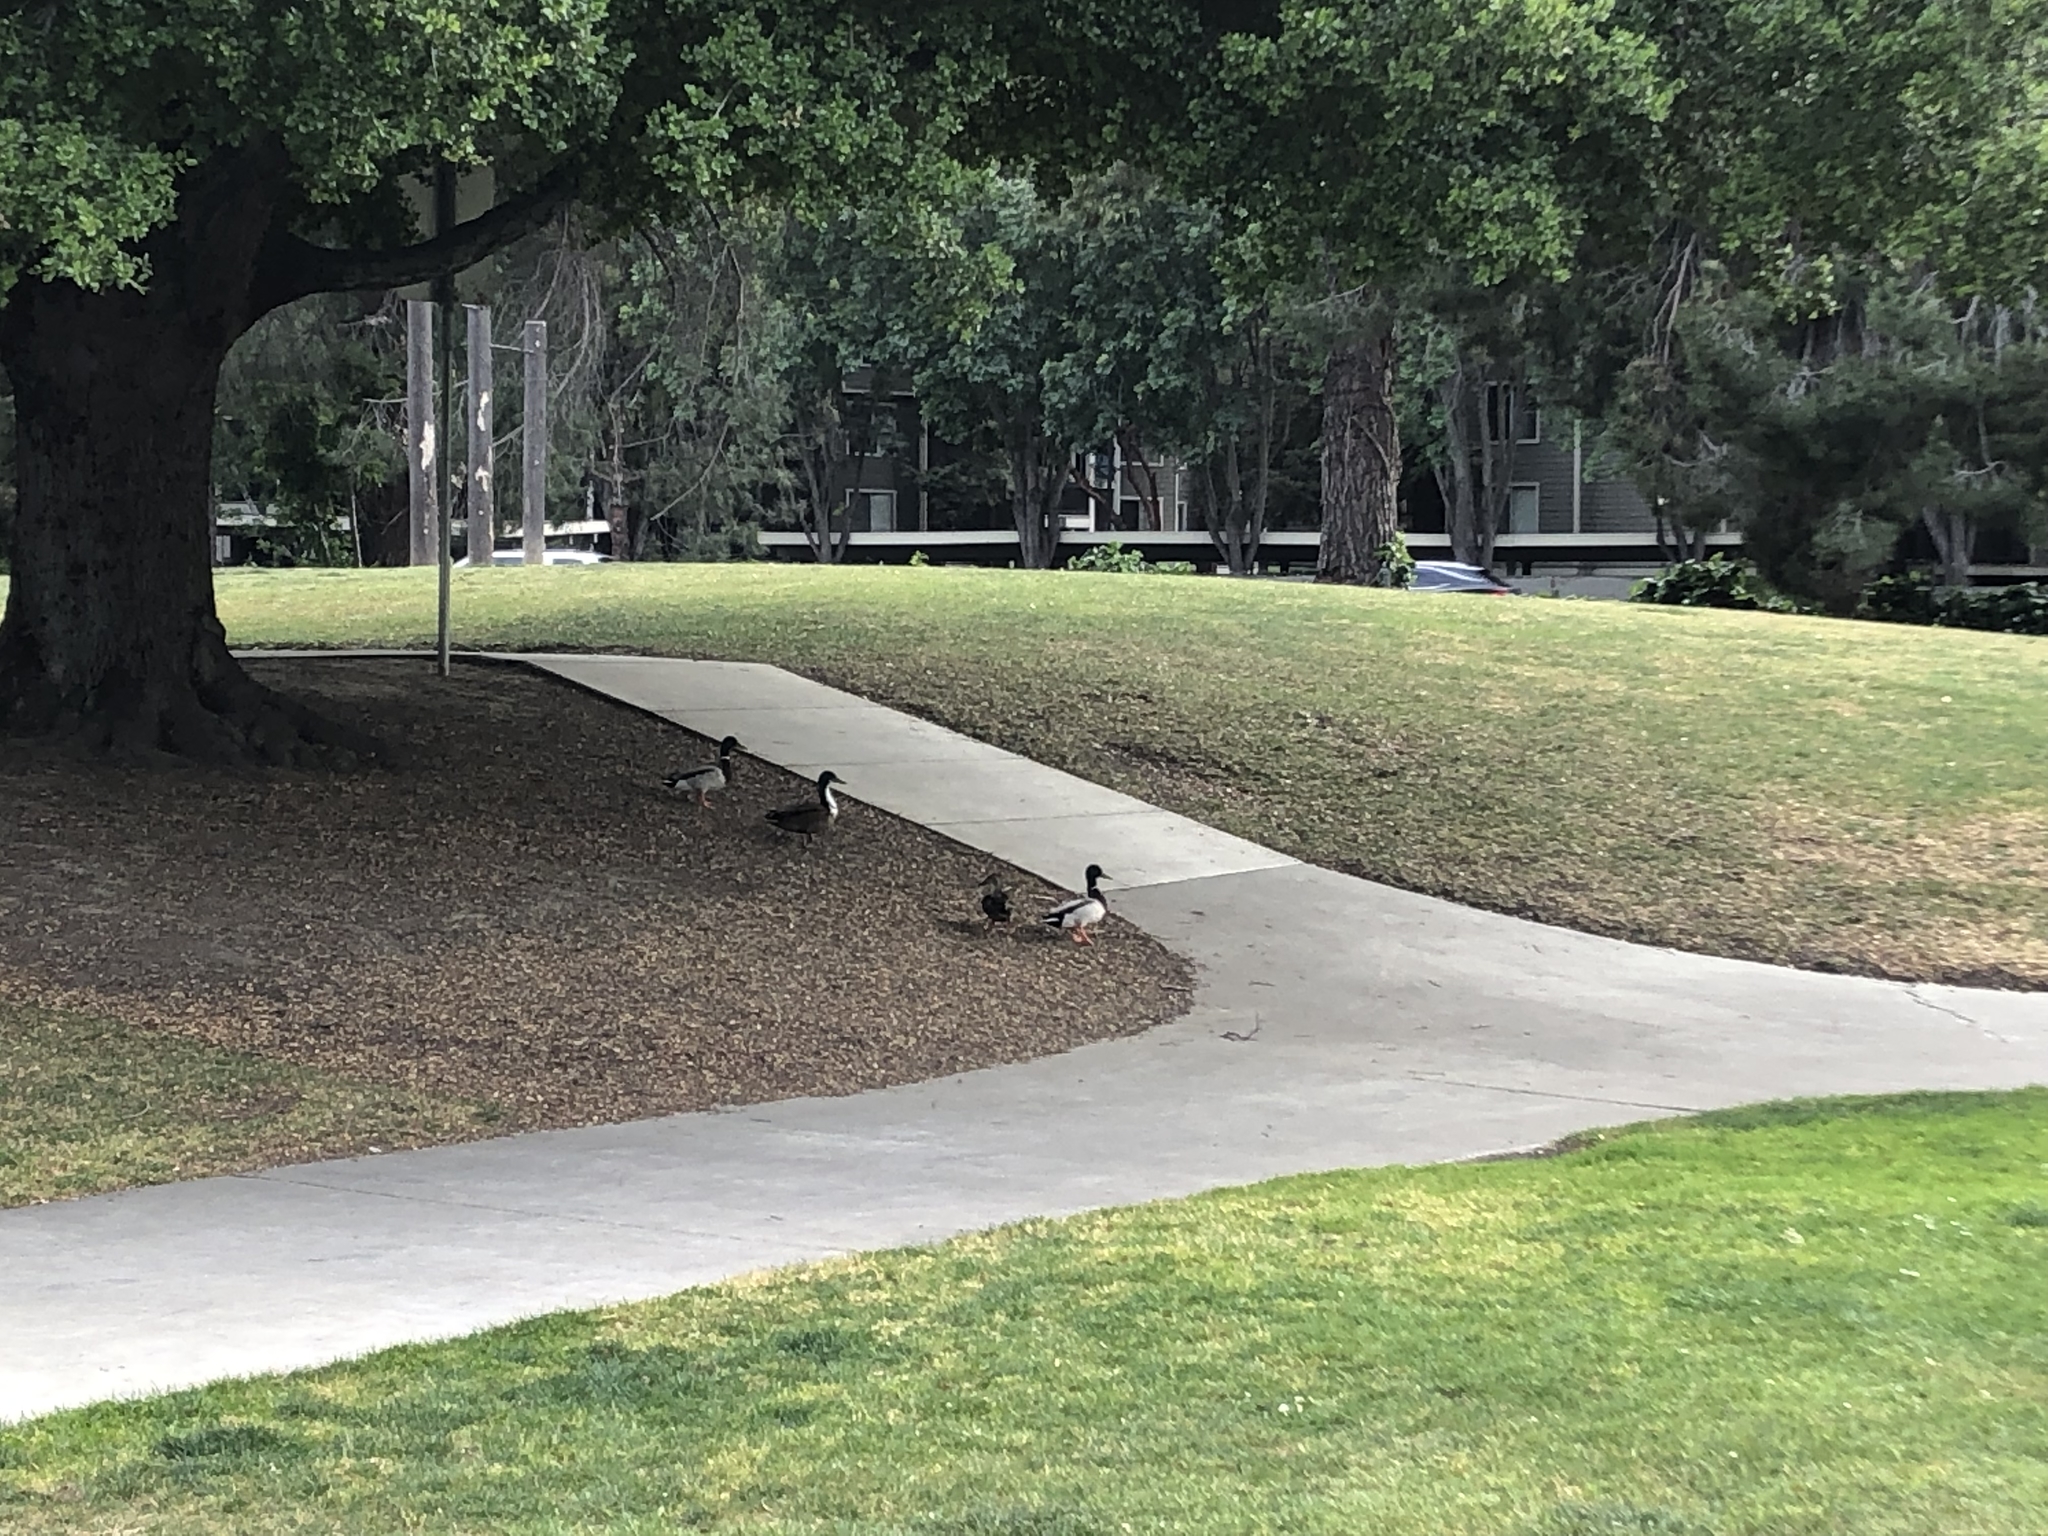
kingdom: Animalia
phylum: Chordata
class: Aves
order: Anseriformes
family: Anatidae
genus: Anas
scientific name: Anas platyrhynchos
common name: Mallard
